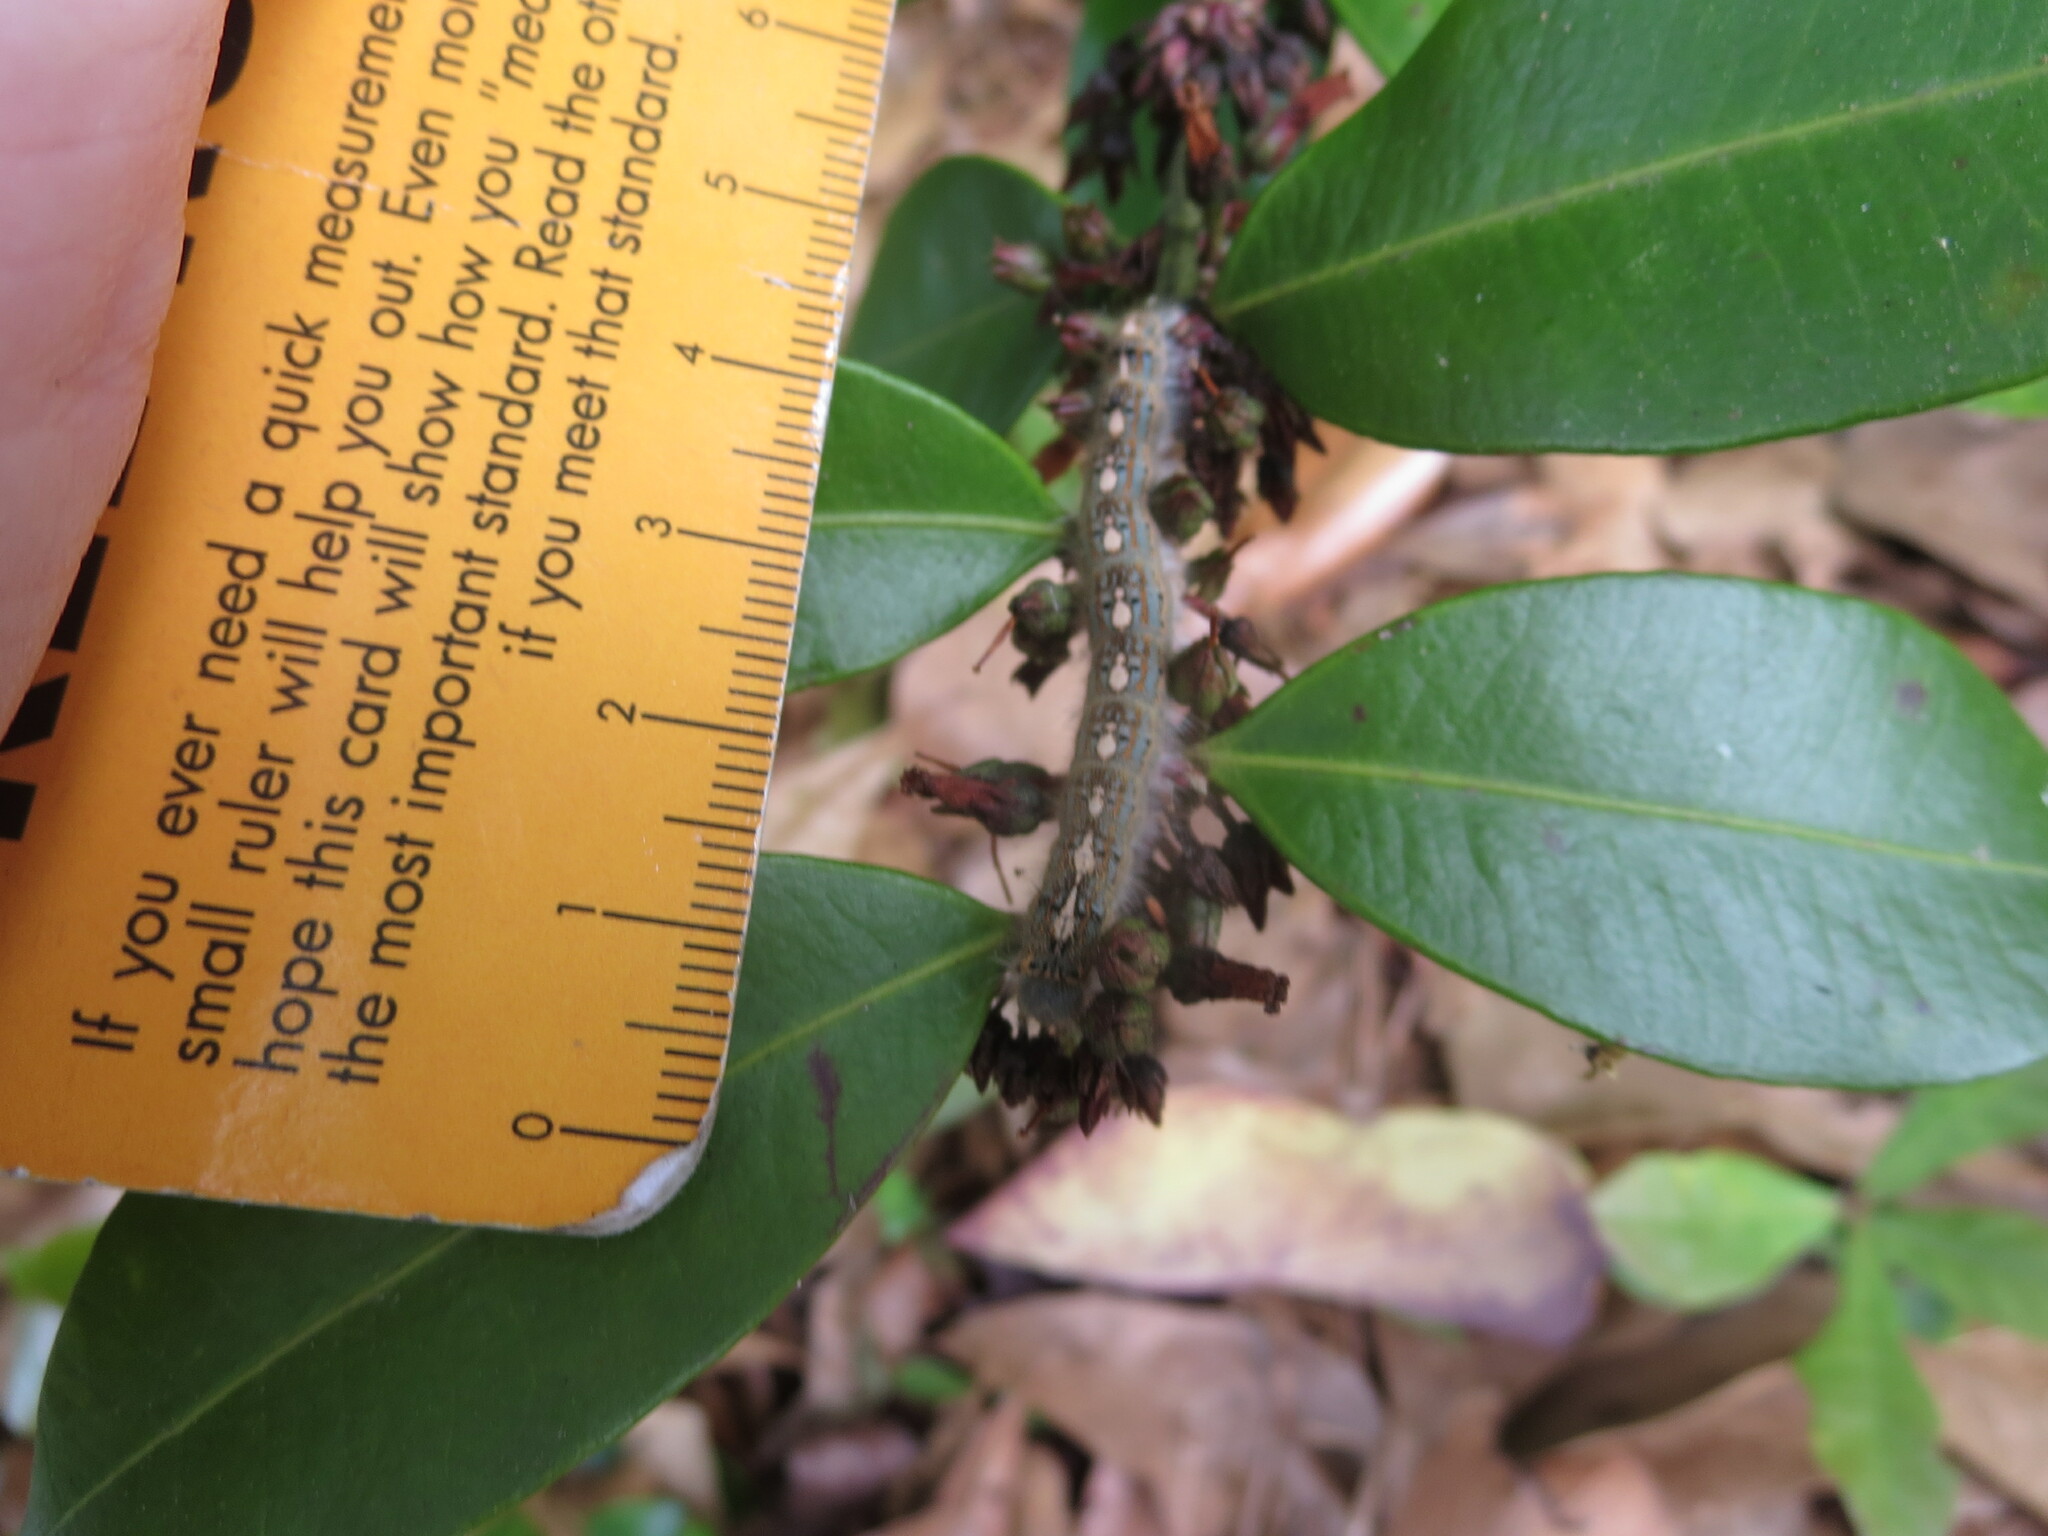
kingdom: Animalia
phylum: Arthropoda
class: Insecta
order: Lepidoptera
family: Lasiocampidae
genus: Malacosoma
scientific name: Malacosoma disstria
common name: Forest tent caterpillar
